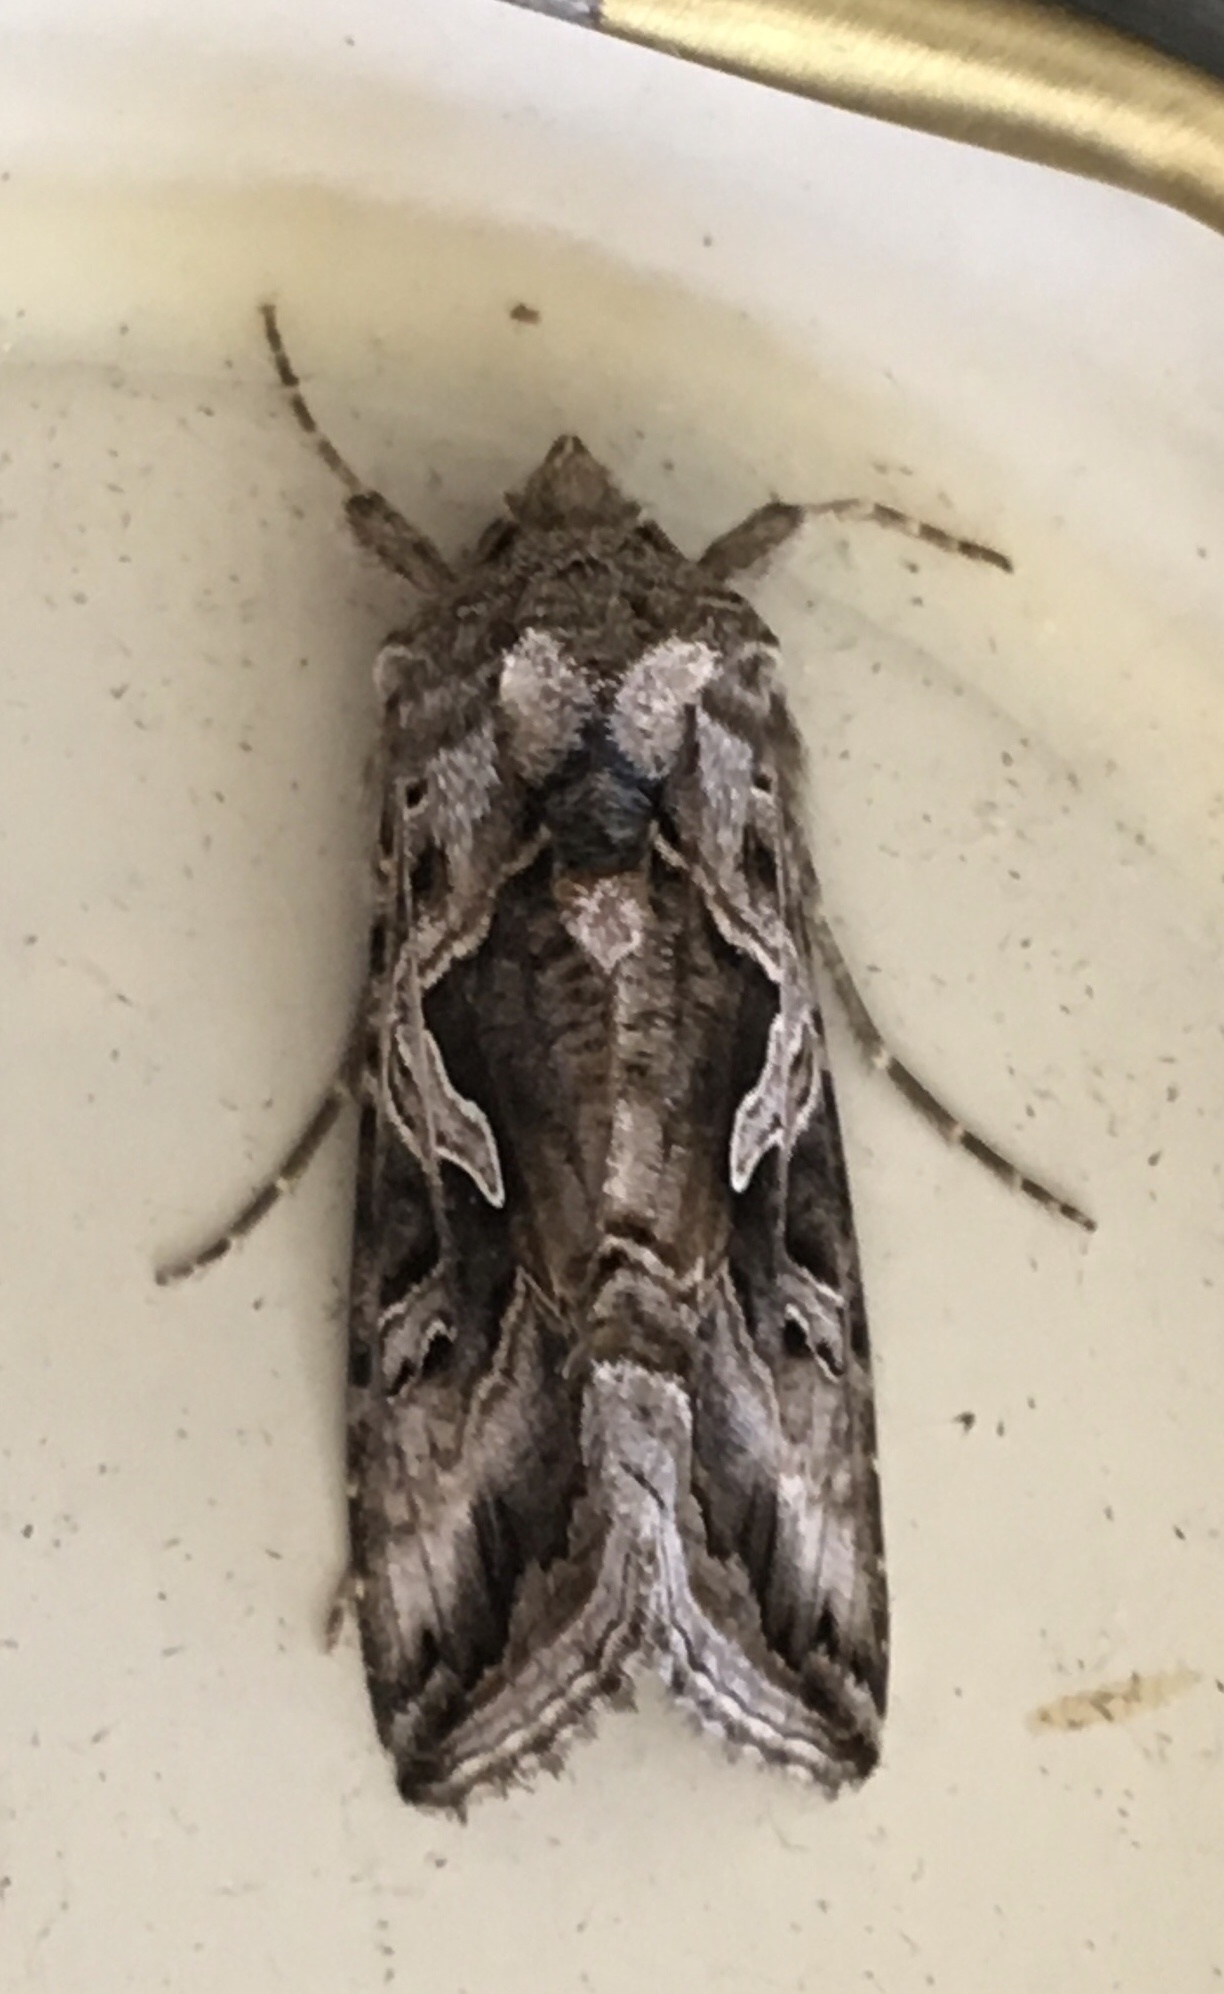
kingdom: Animalia
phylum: Arthropoda
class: Insecta
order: Lepidoptera
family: Noctuidae
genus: Cornutiplusia
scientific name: Cornutiplusia circumflexa
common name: Yorkshire y
